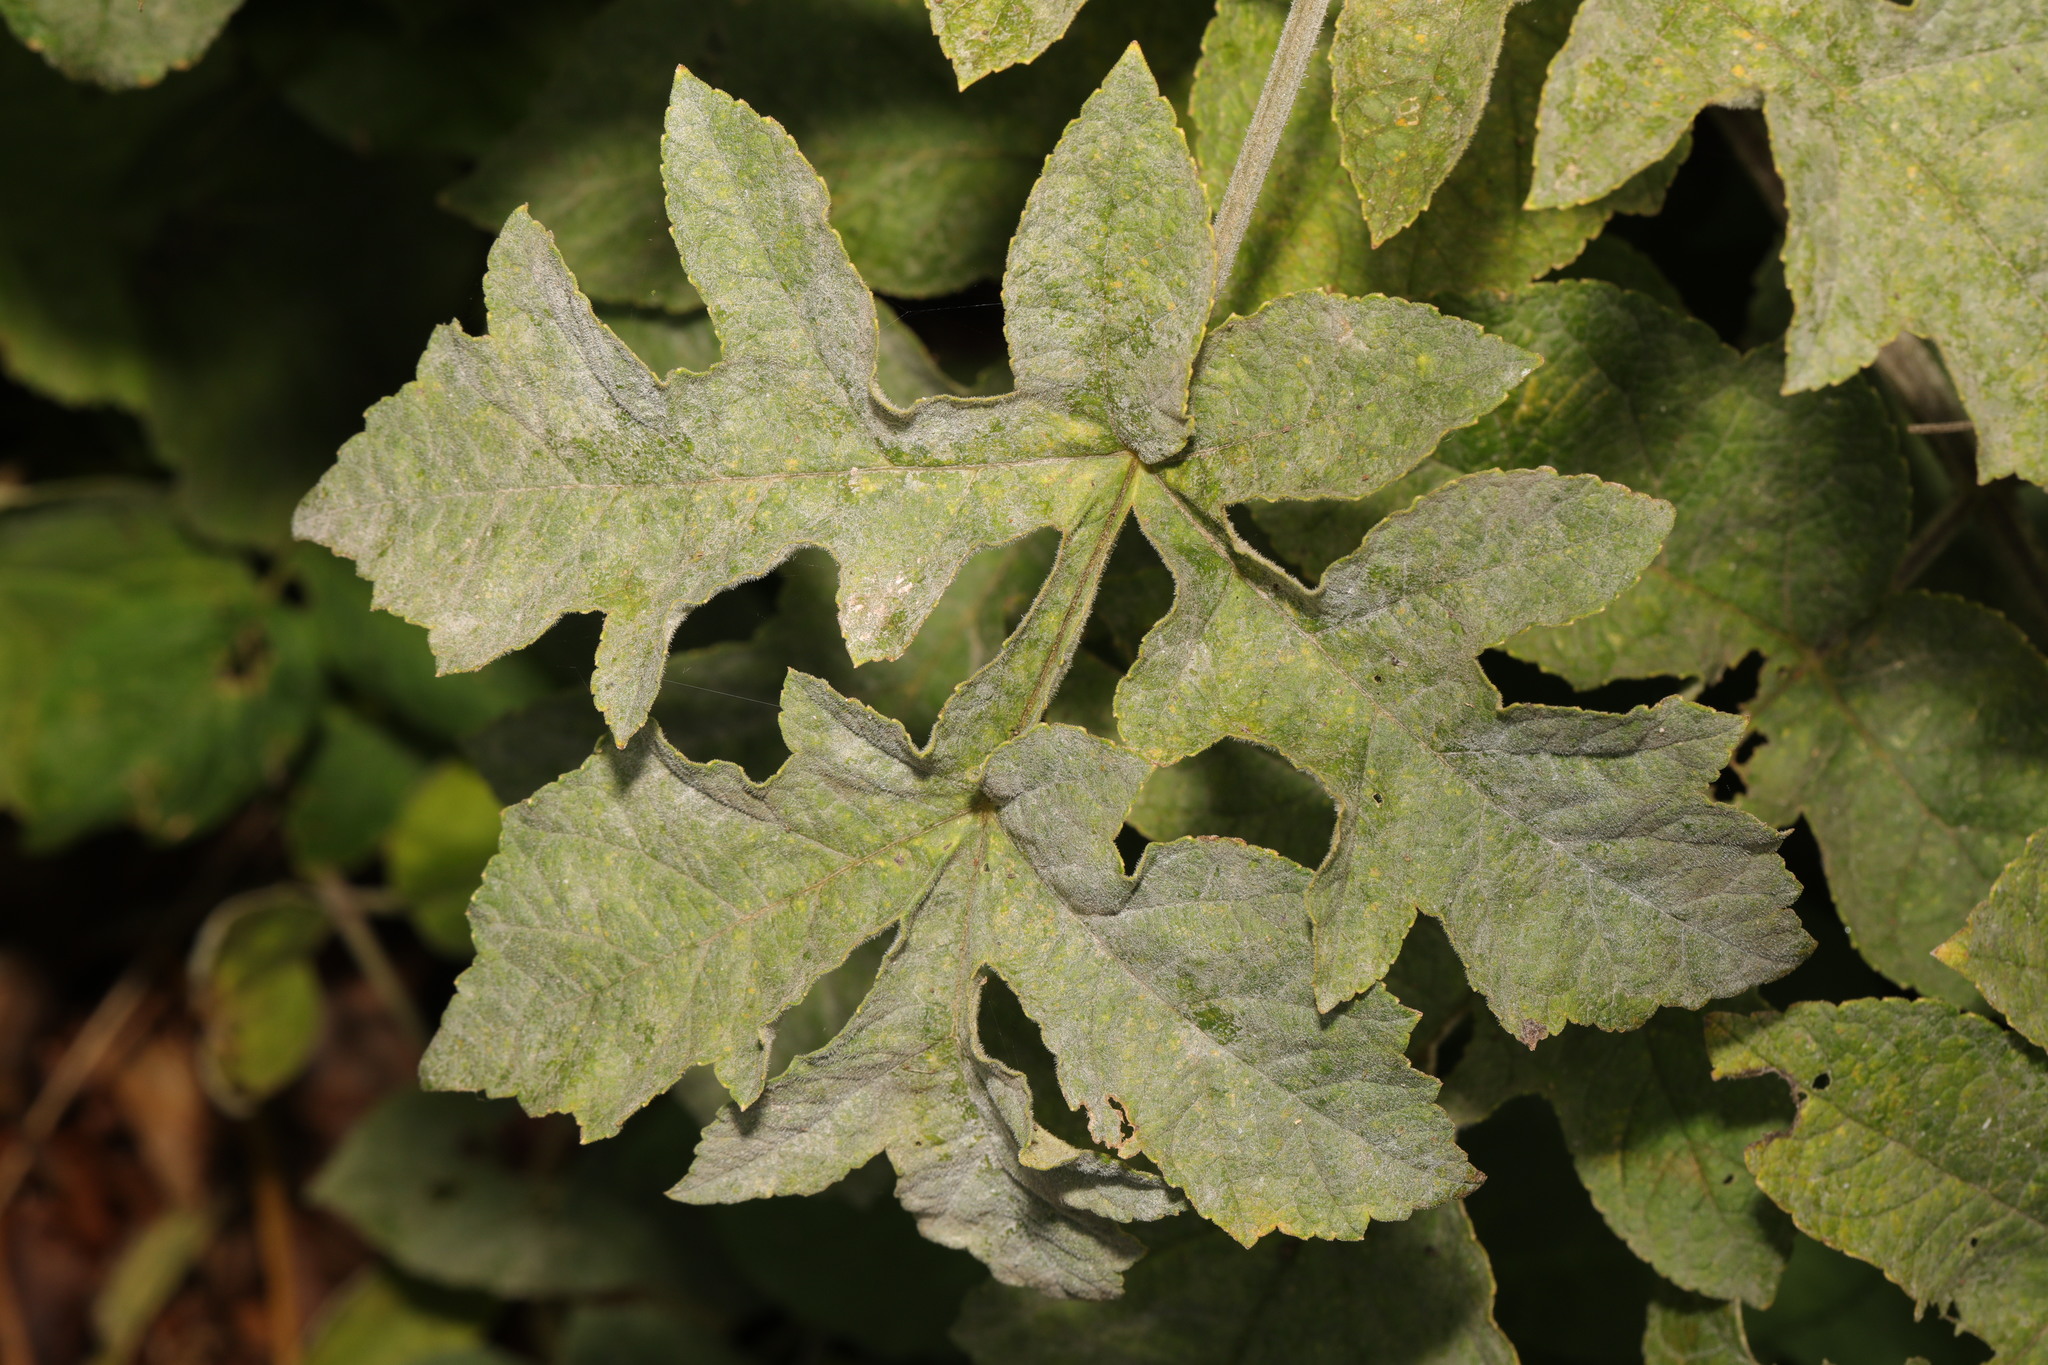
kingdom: Fungi
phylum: Ascomycota
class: Leotiomycetes
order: Helotiales
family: Erysiphaceae
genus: Erysiphe
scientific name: Erysiphe heraclei
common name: Umbellifer mildew
